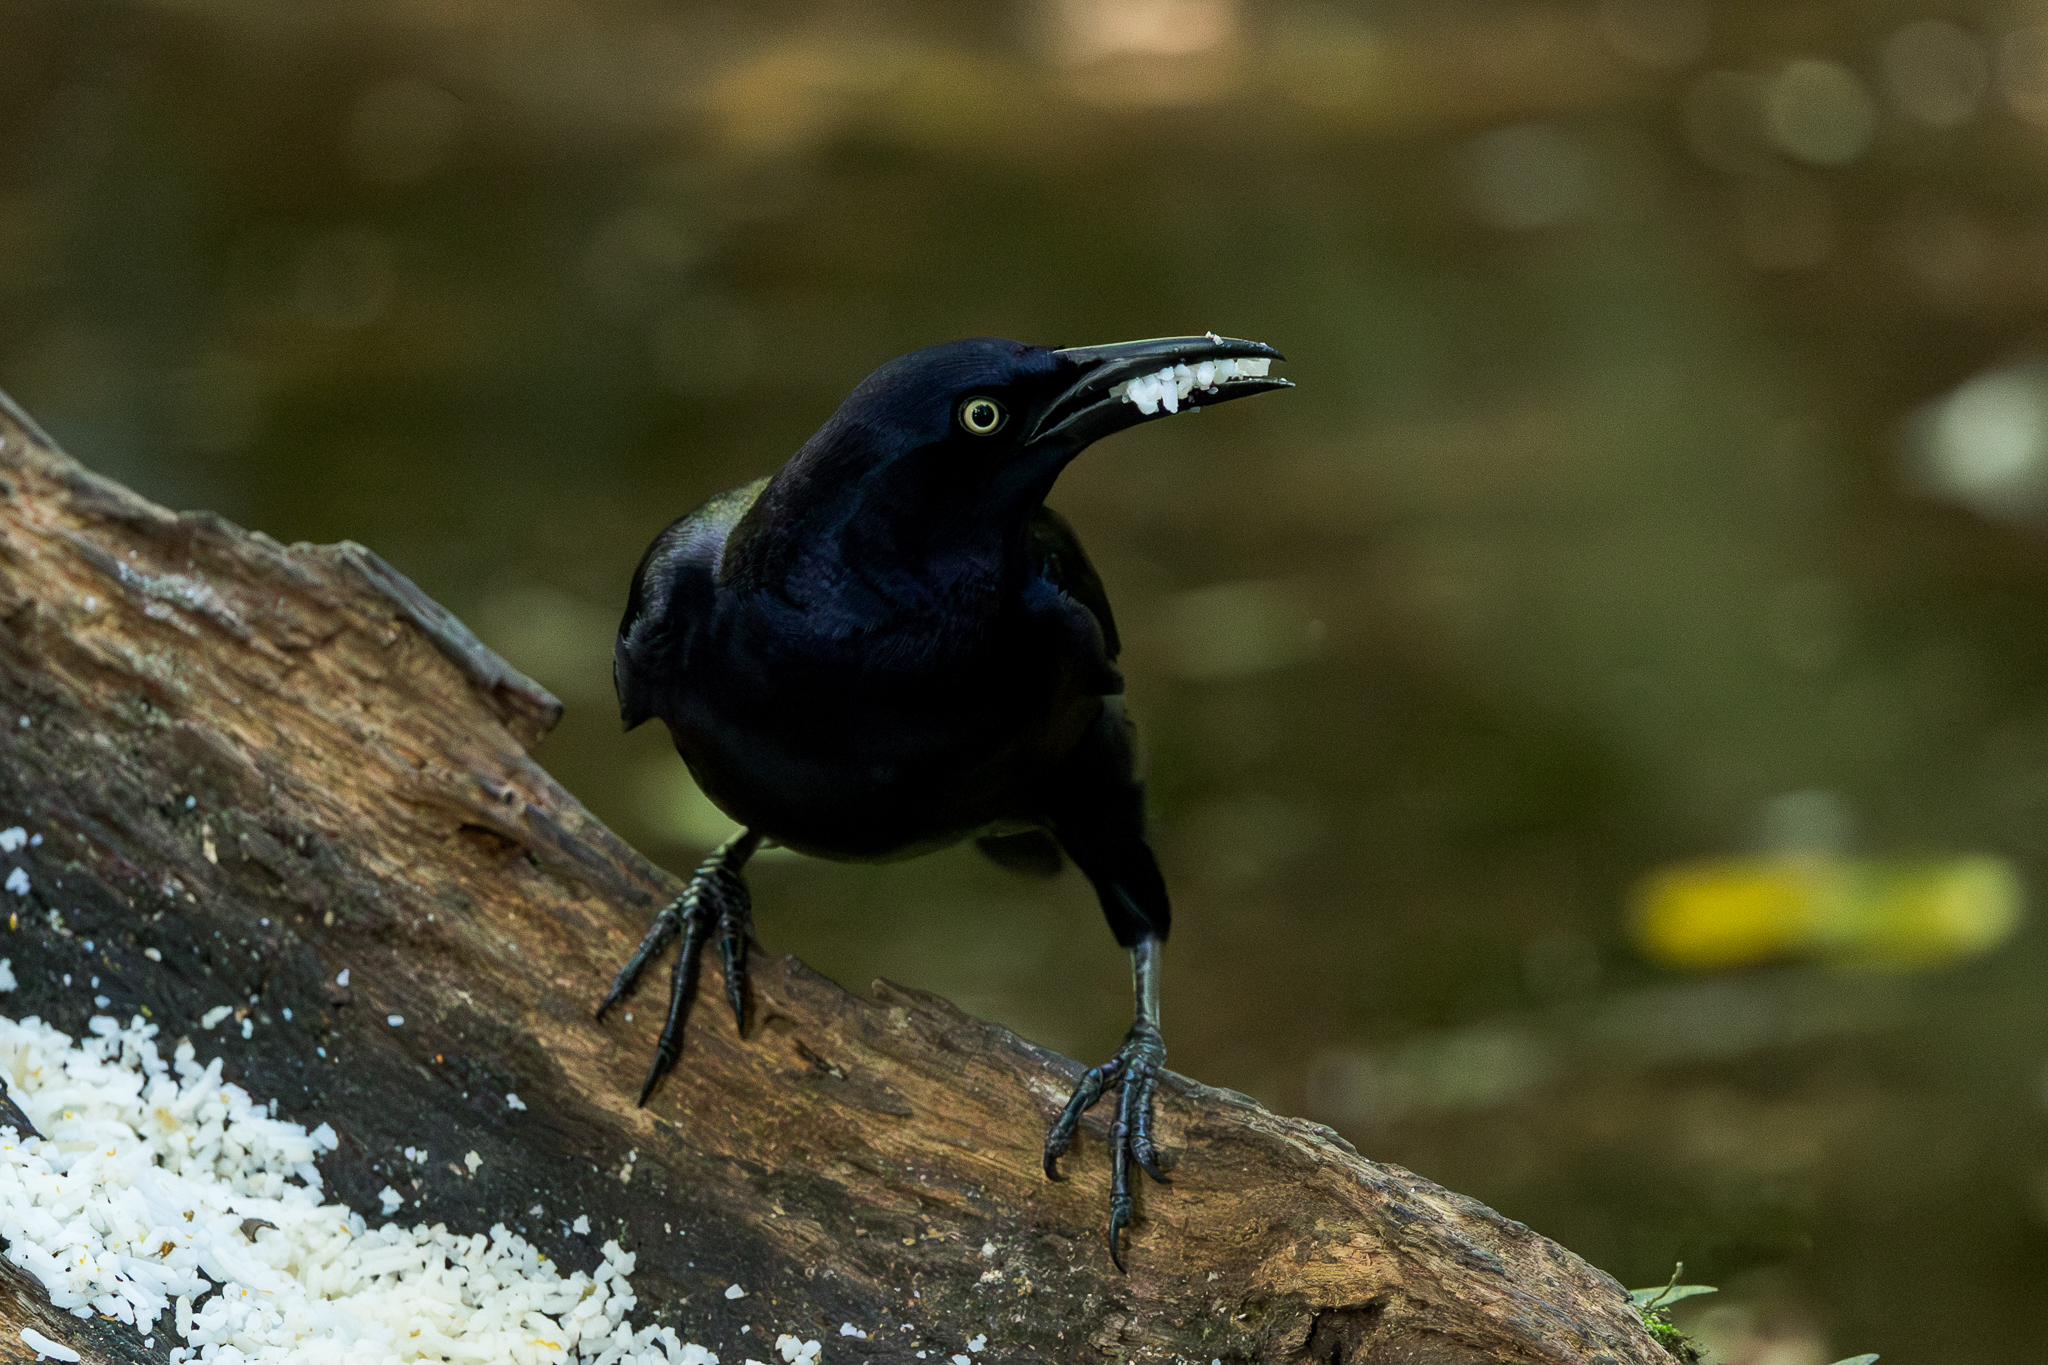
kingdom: Animalia
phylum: Chordata
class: Aves
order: Passeriformes
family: Icteridae
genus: Quiscalus
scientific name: Quiscalus mexicanus
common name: Great-tailed grackle
